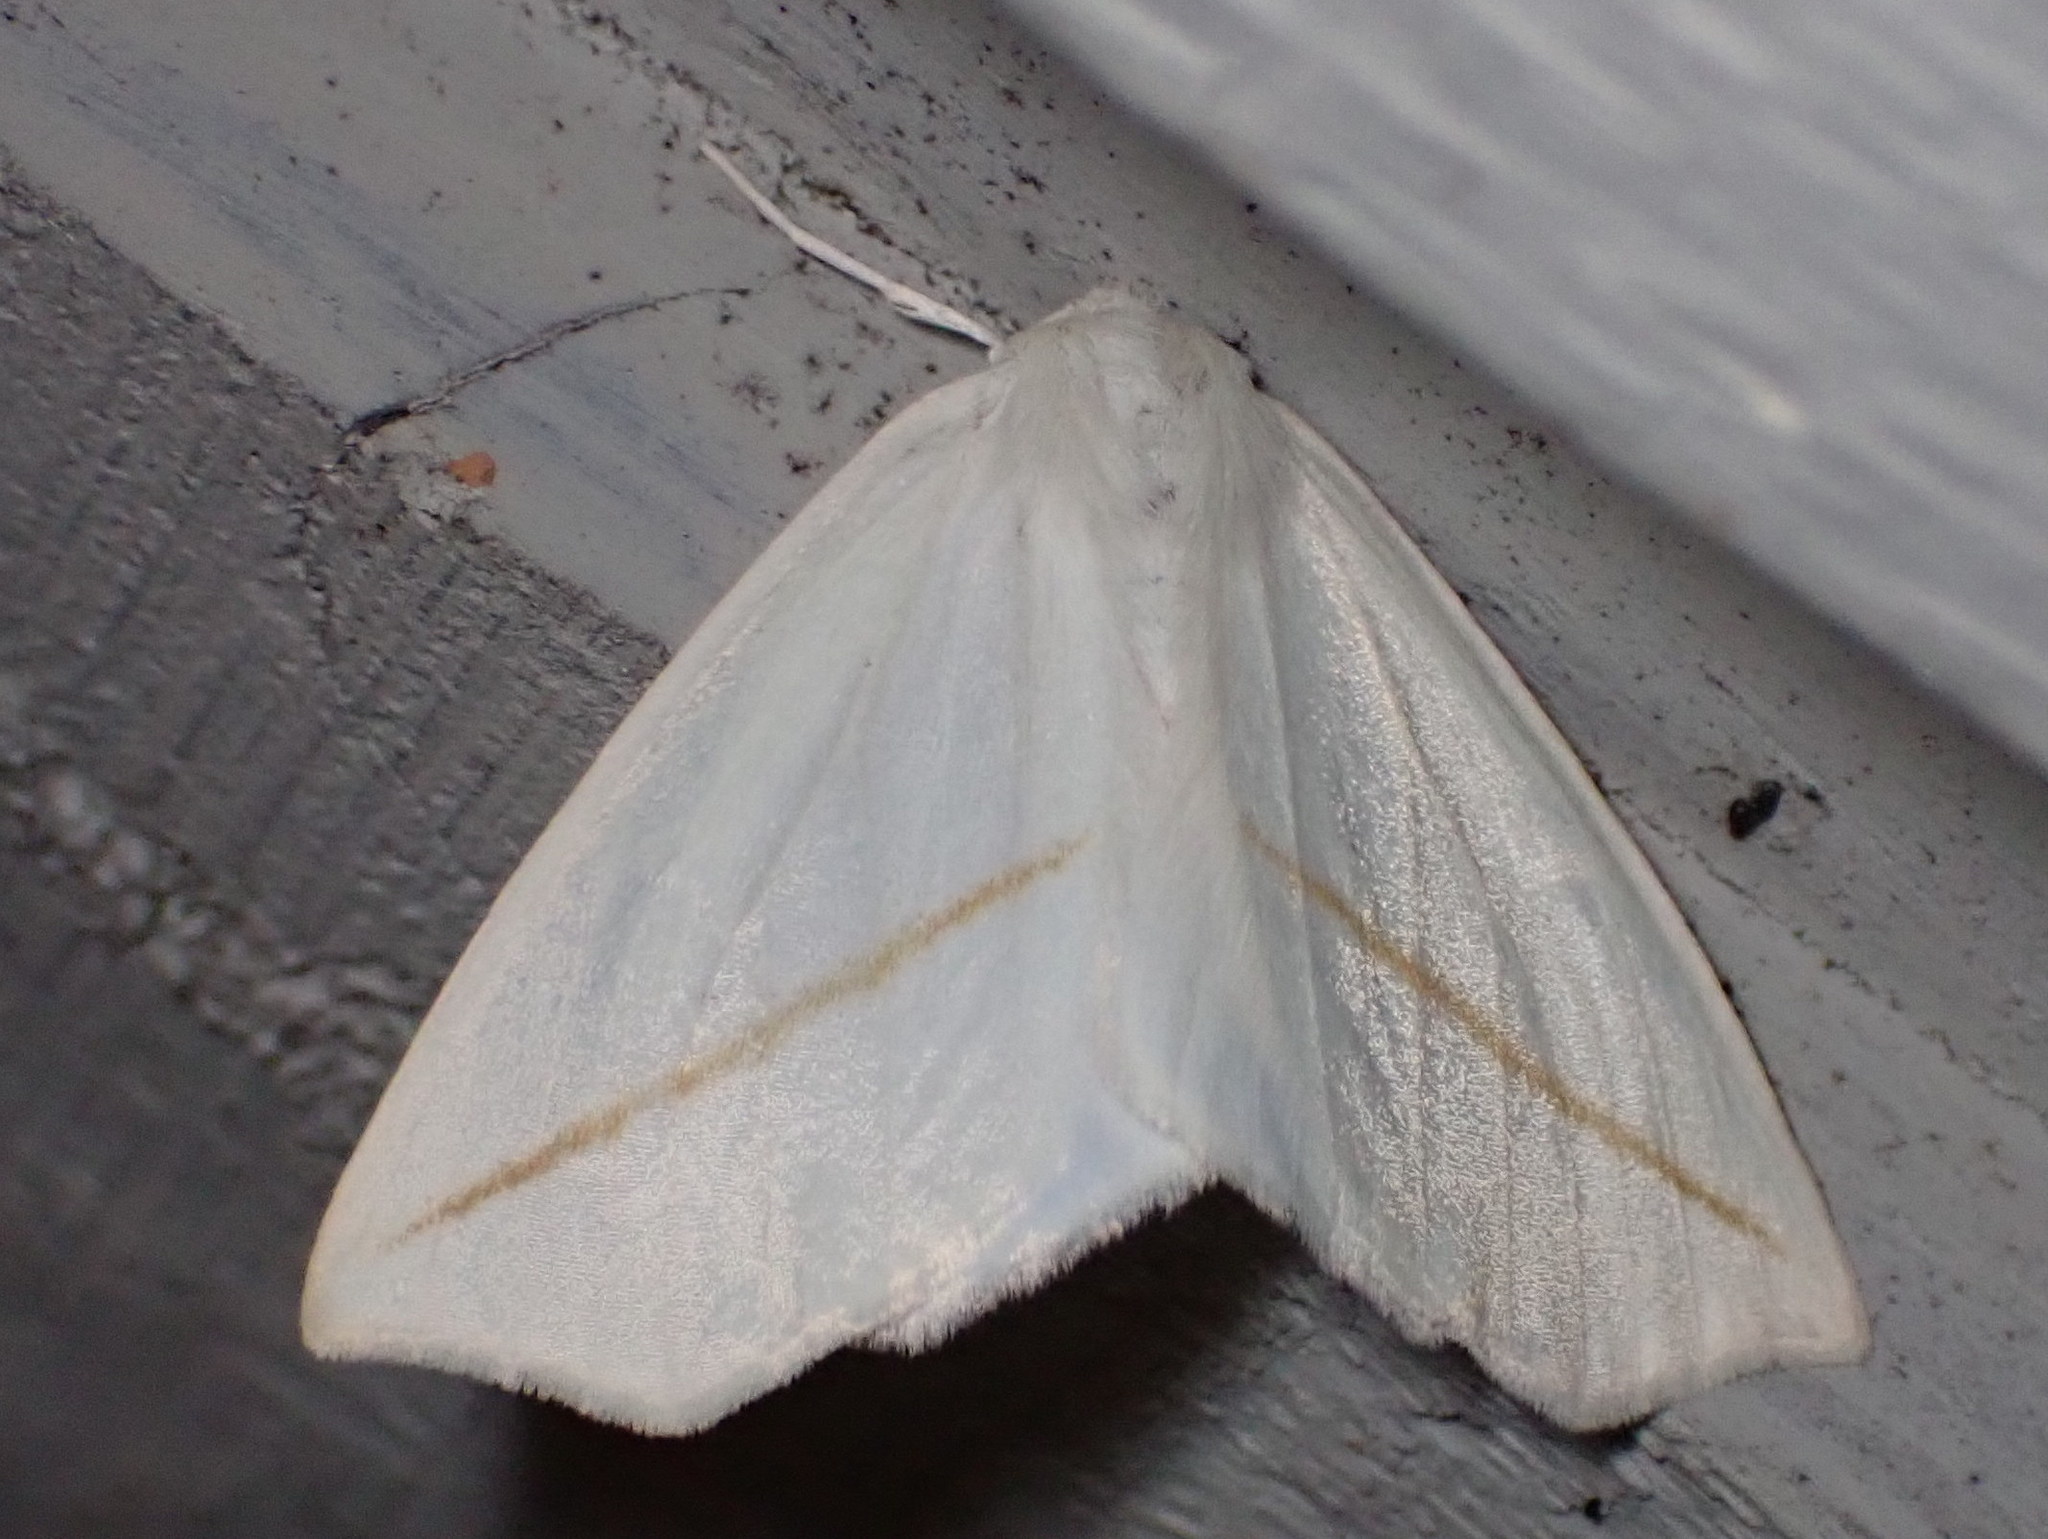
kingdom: Animalia
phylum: Arthropoda
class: Insecta
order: Lepidoptera
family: Geometridae
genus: Tetracis
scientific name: Tetracis cachexiata
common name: White slant-line
